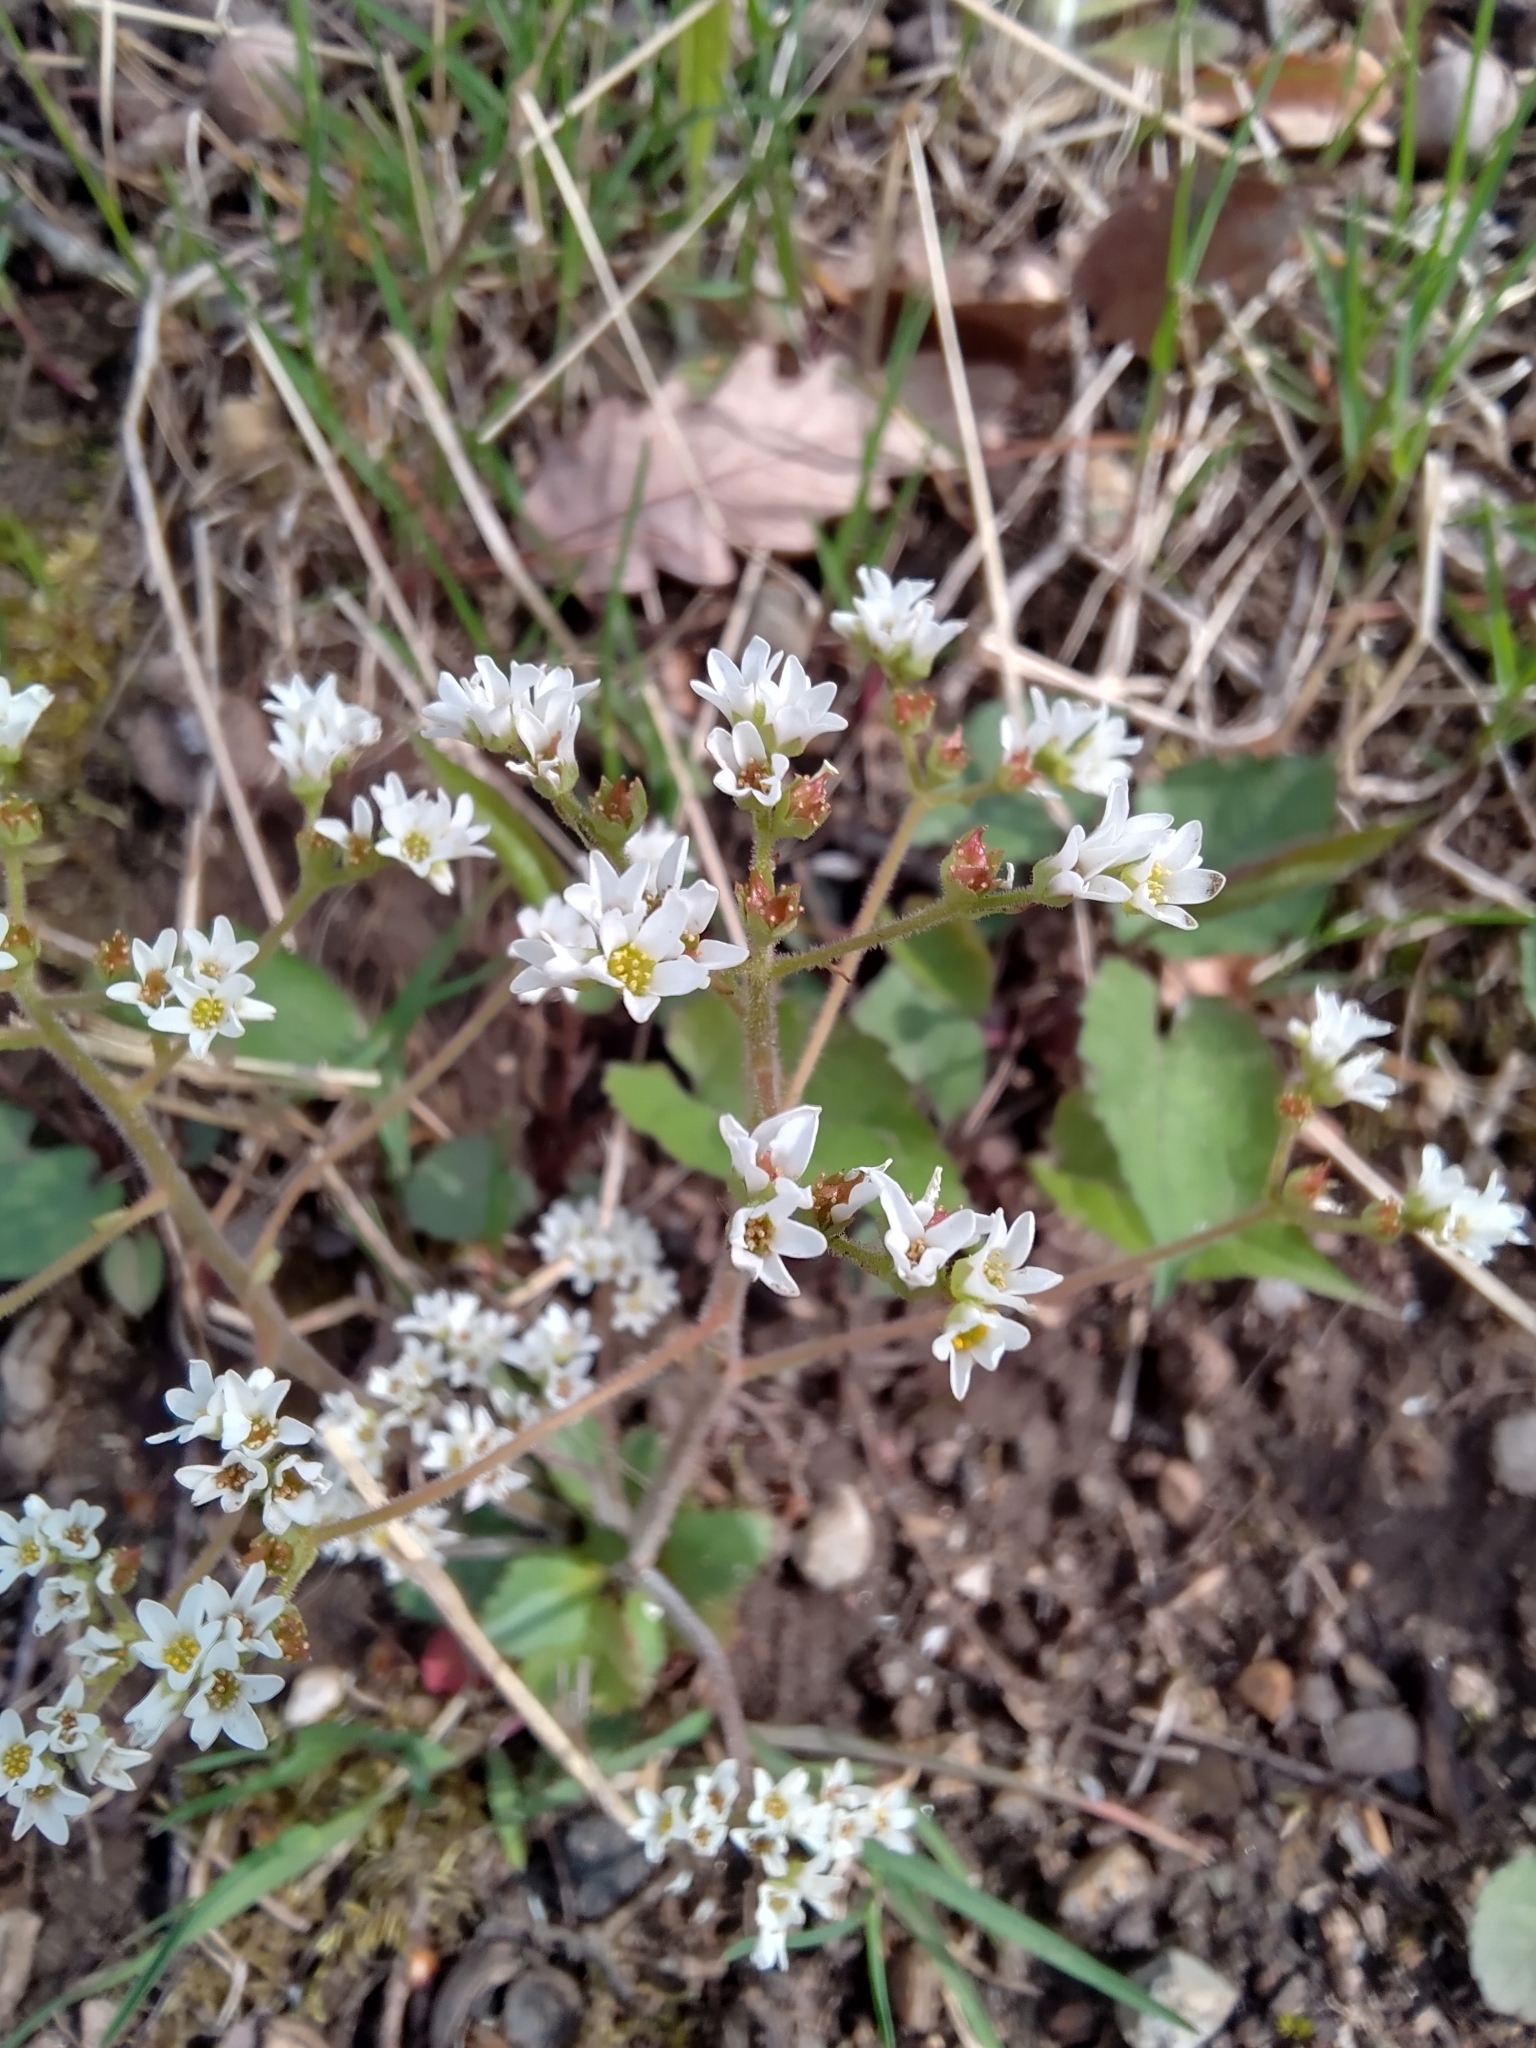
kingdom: Plantae
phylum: Tracheophyta
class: Magnoliopsida
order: Saxifragales
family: Saxifragaceae
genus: Micranthes
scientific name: Micranthes virginiensis
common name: Early saxifrage
